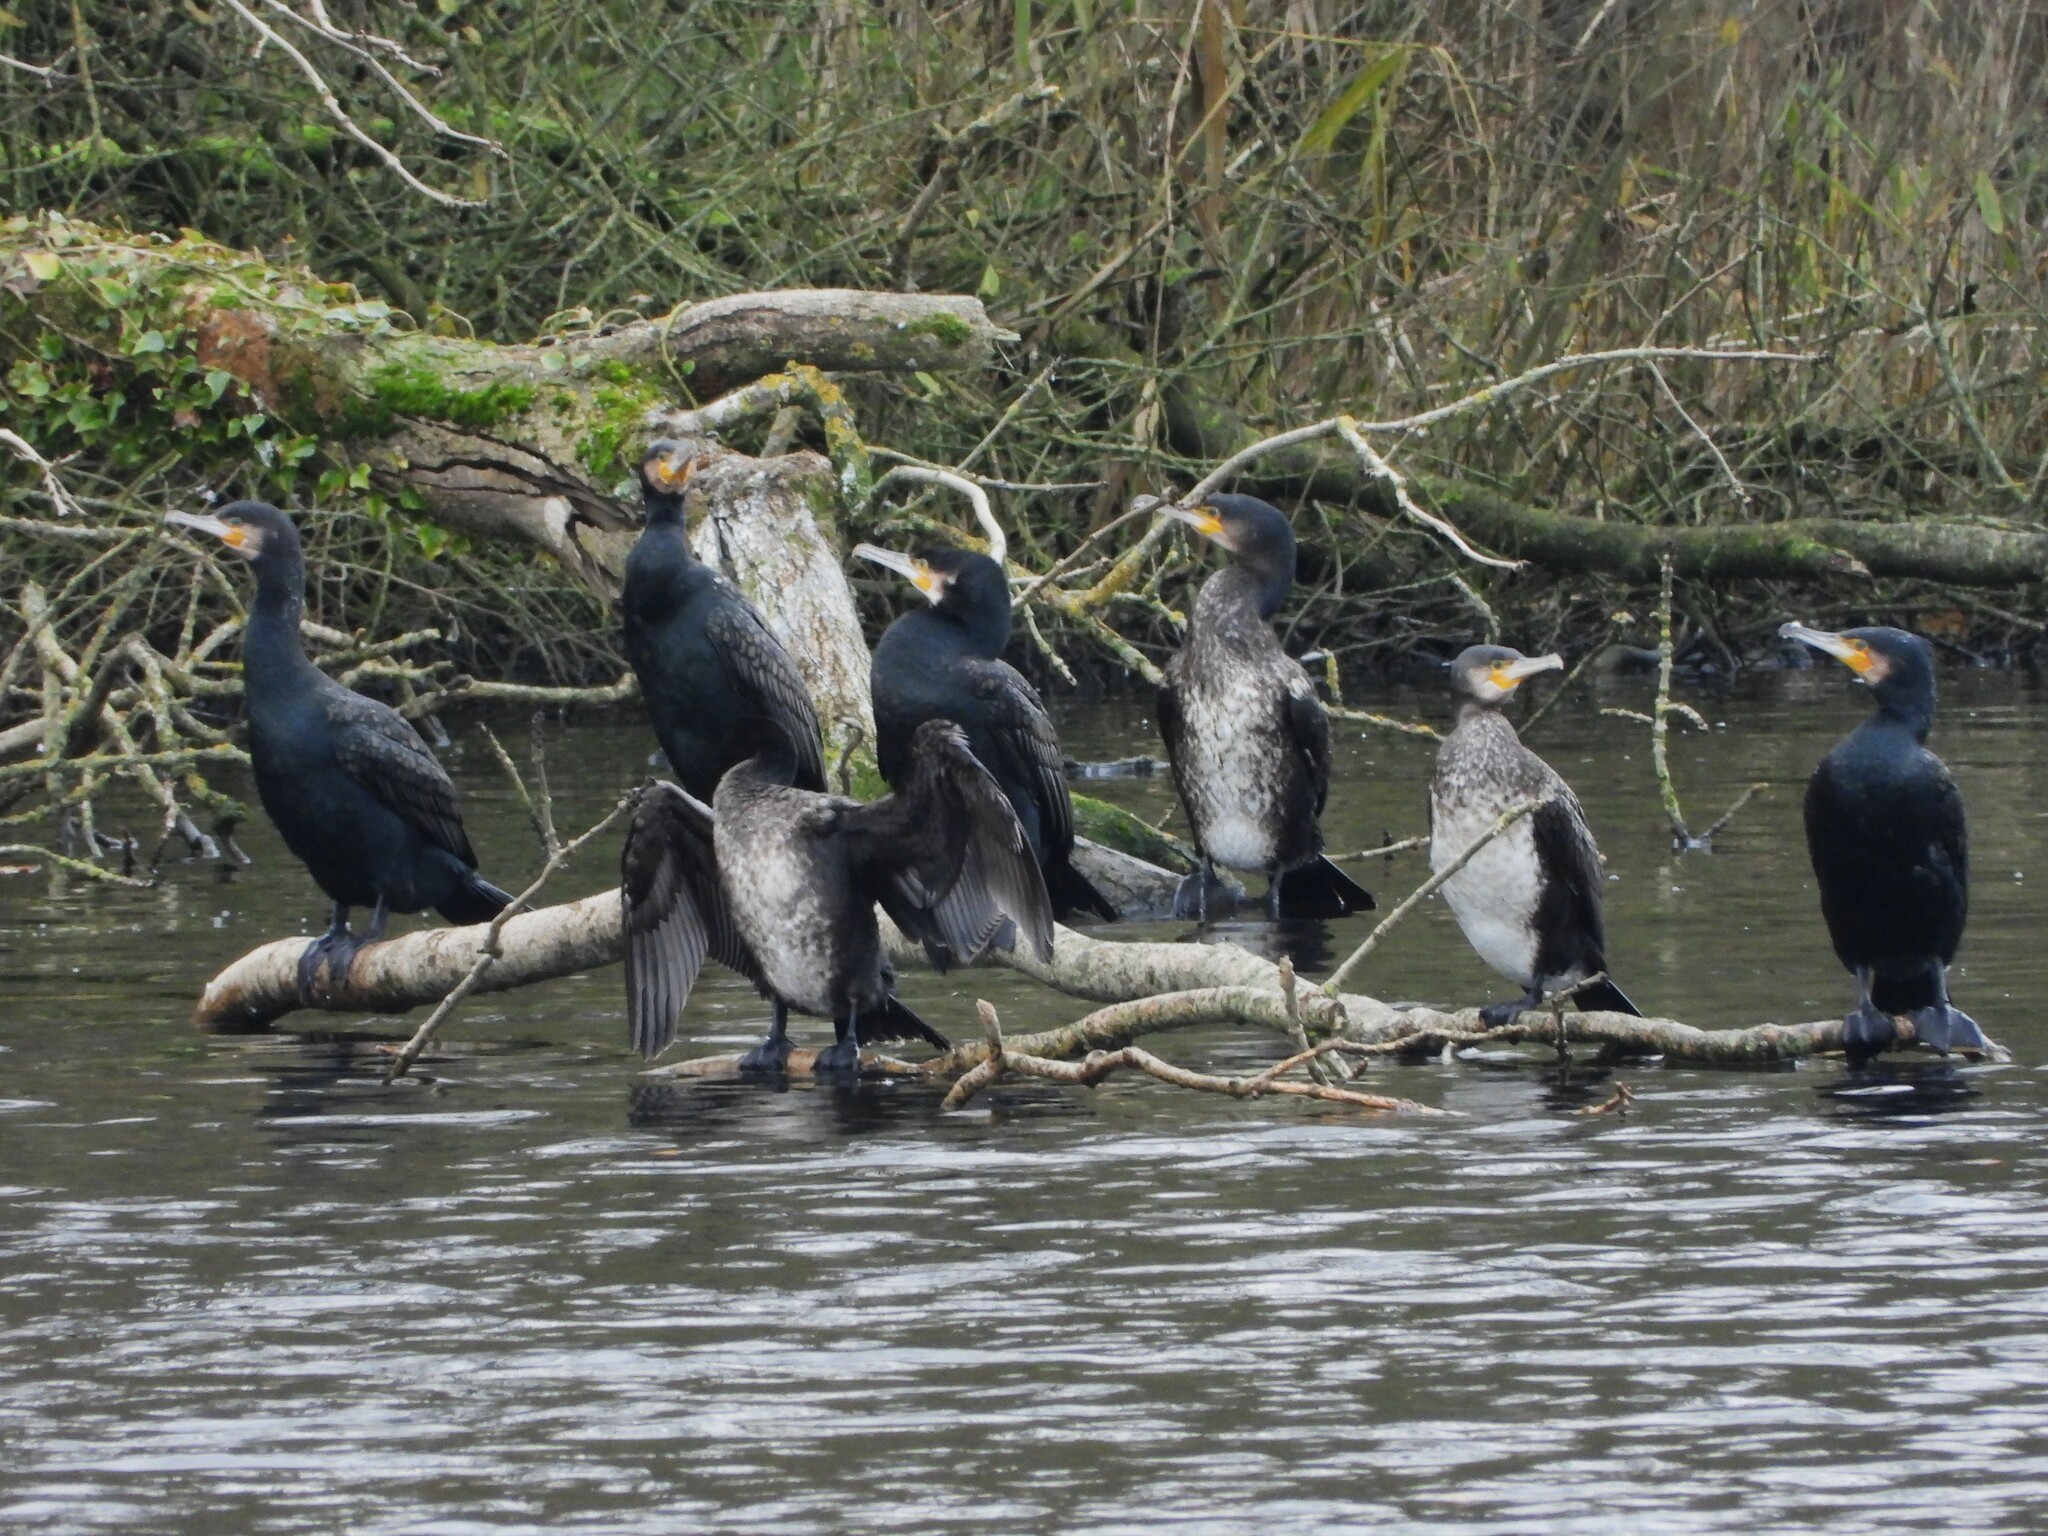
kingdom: Animalia
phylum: Chordata
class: Aves
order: Suliformes
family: Phalacrocoracidae
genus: Phalacrocorax
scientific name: Phalacrocorax carbo
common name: Great cormorant
